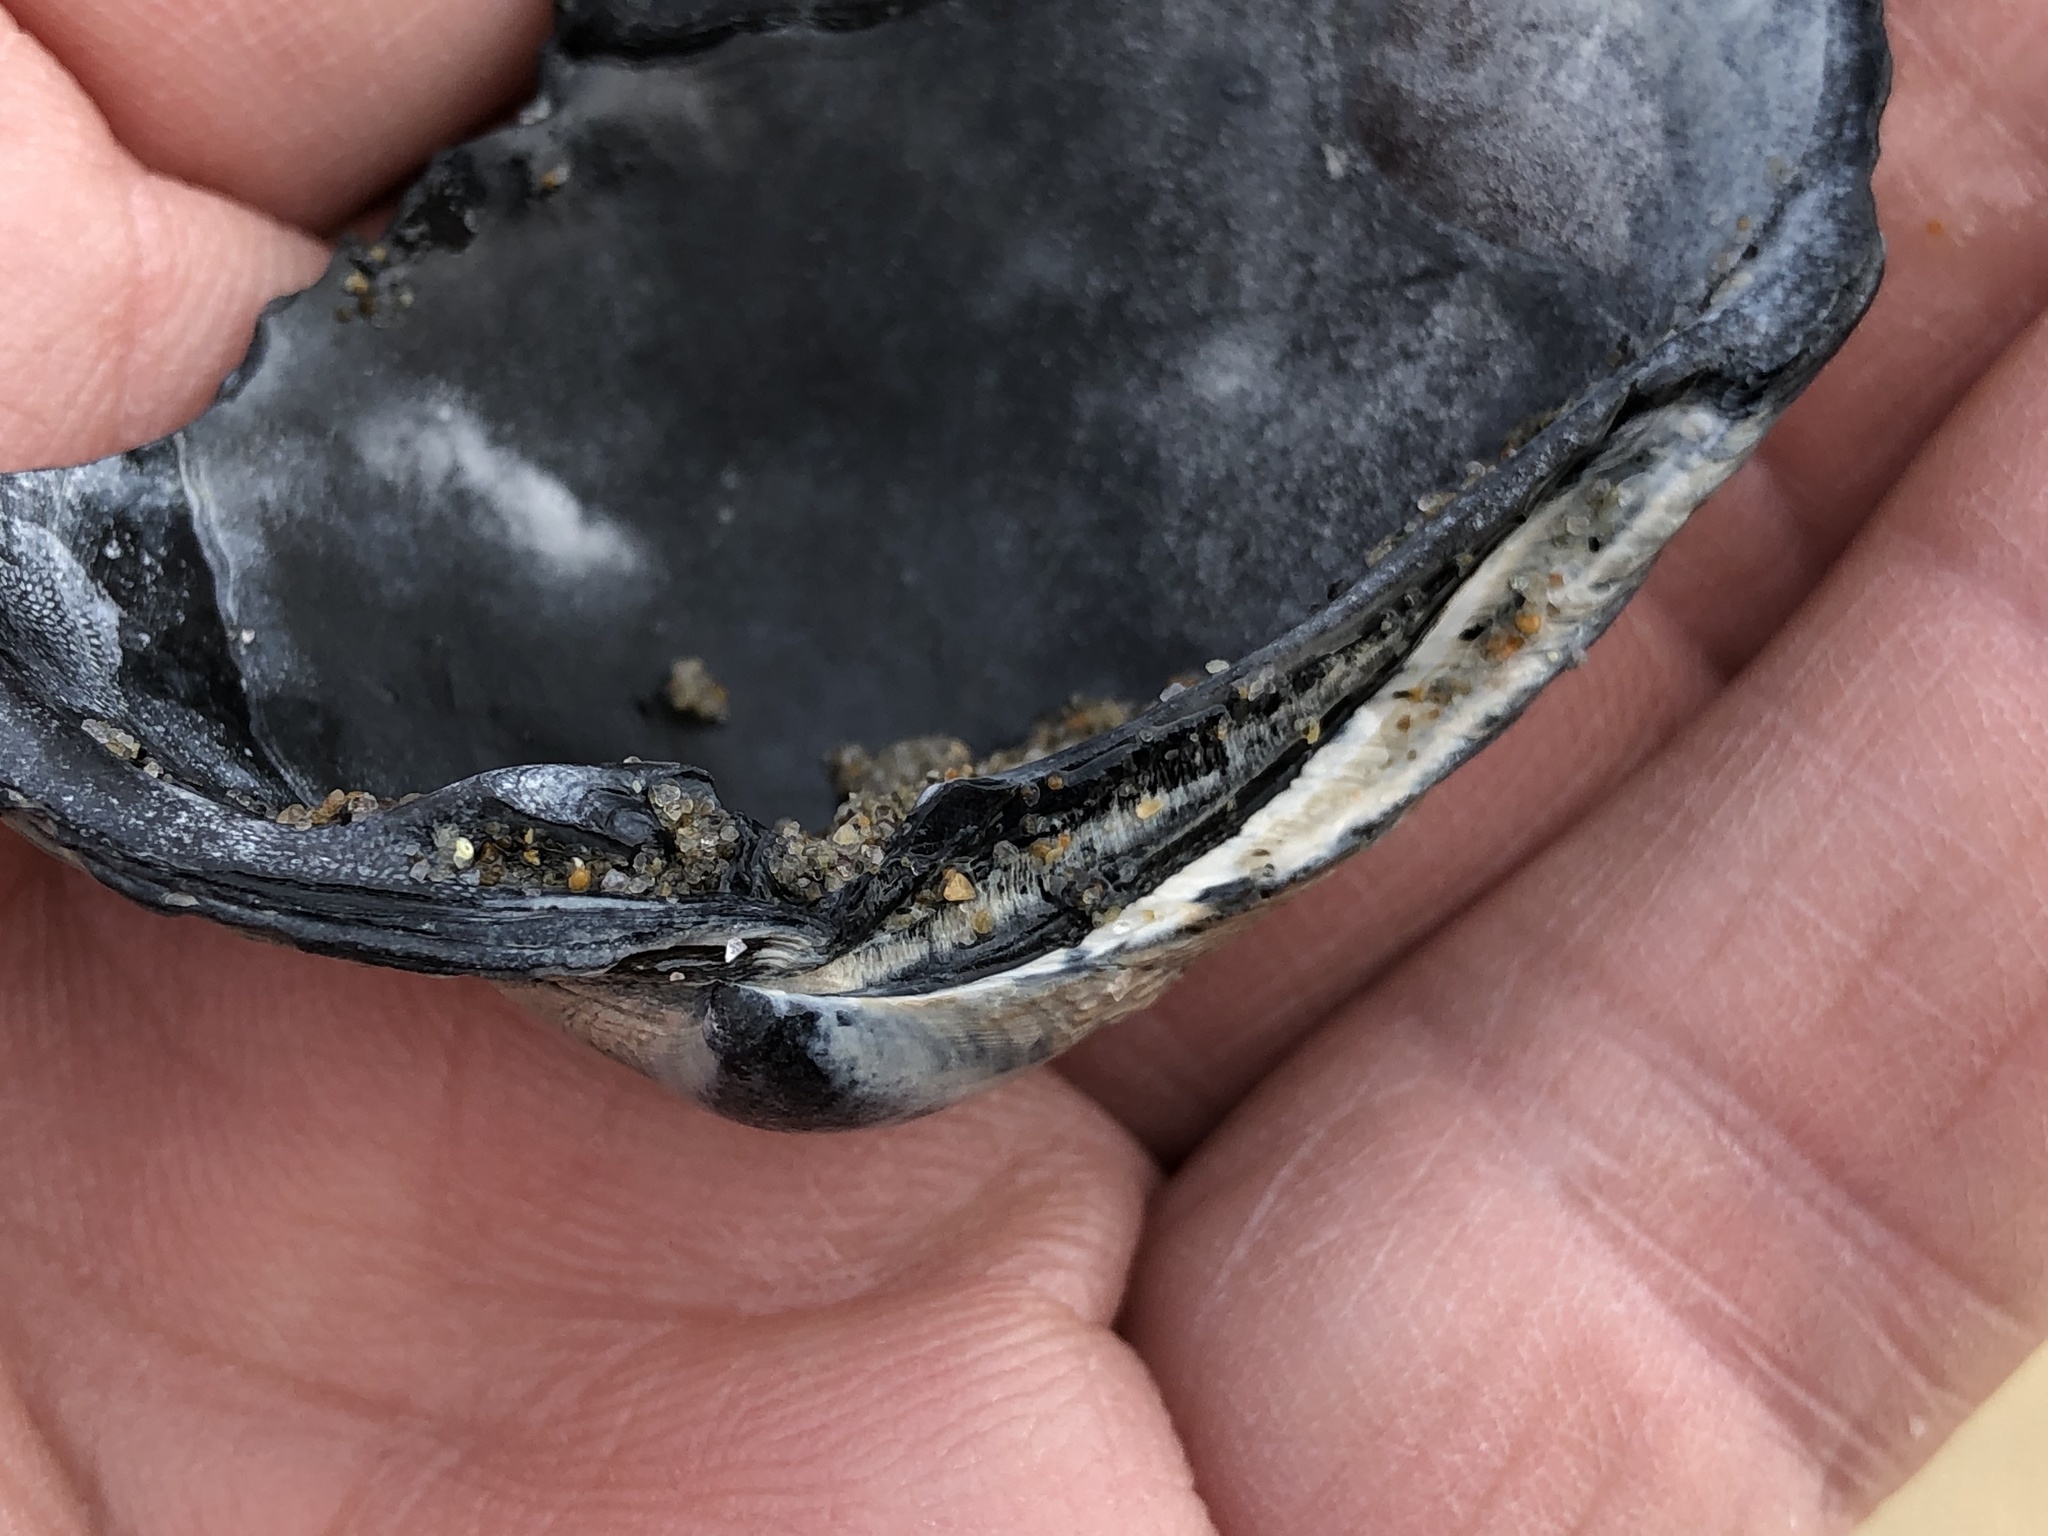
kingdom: Animalia
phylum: Mollusca
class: Bivalvia
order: Venerida
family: Veneridae
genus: Leukoma
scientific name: Leukoma staminea
